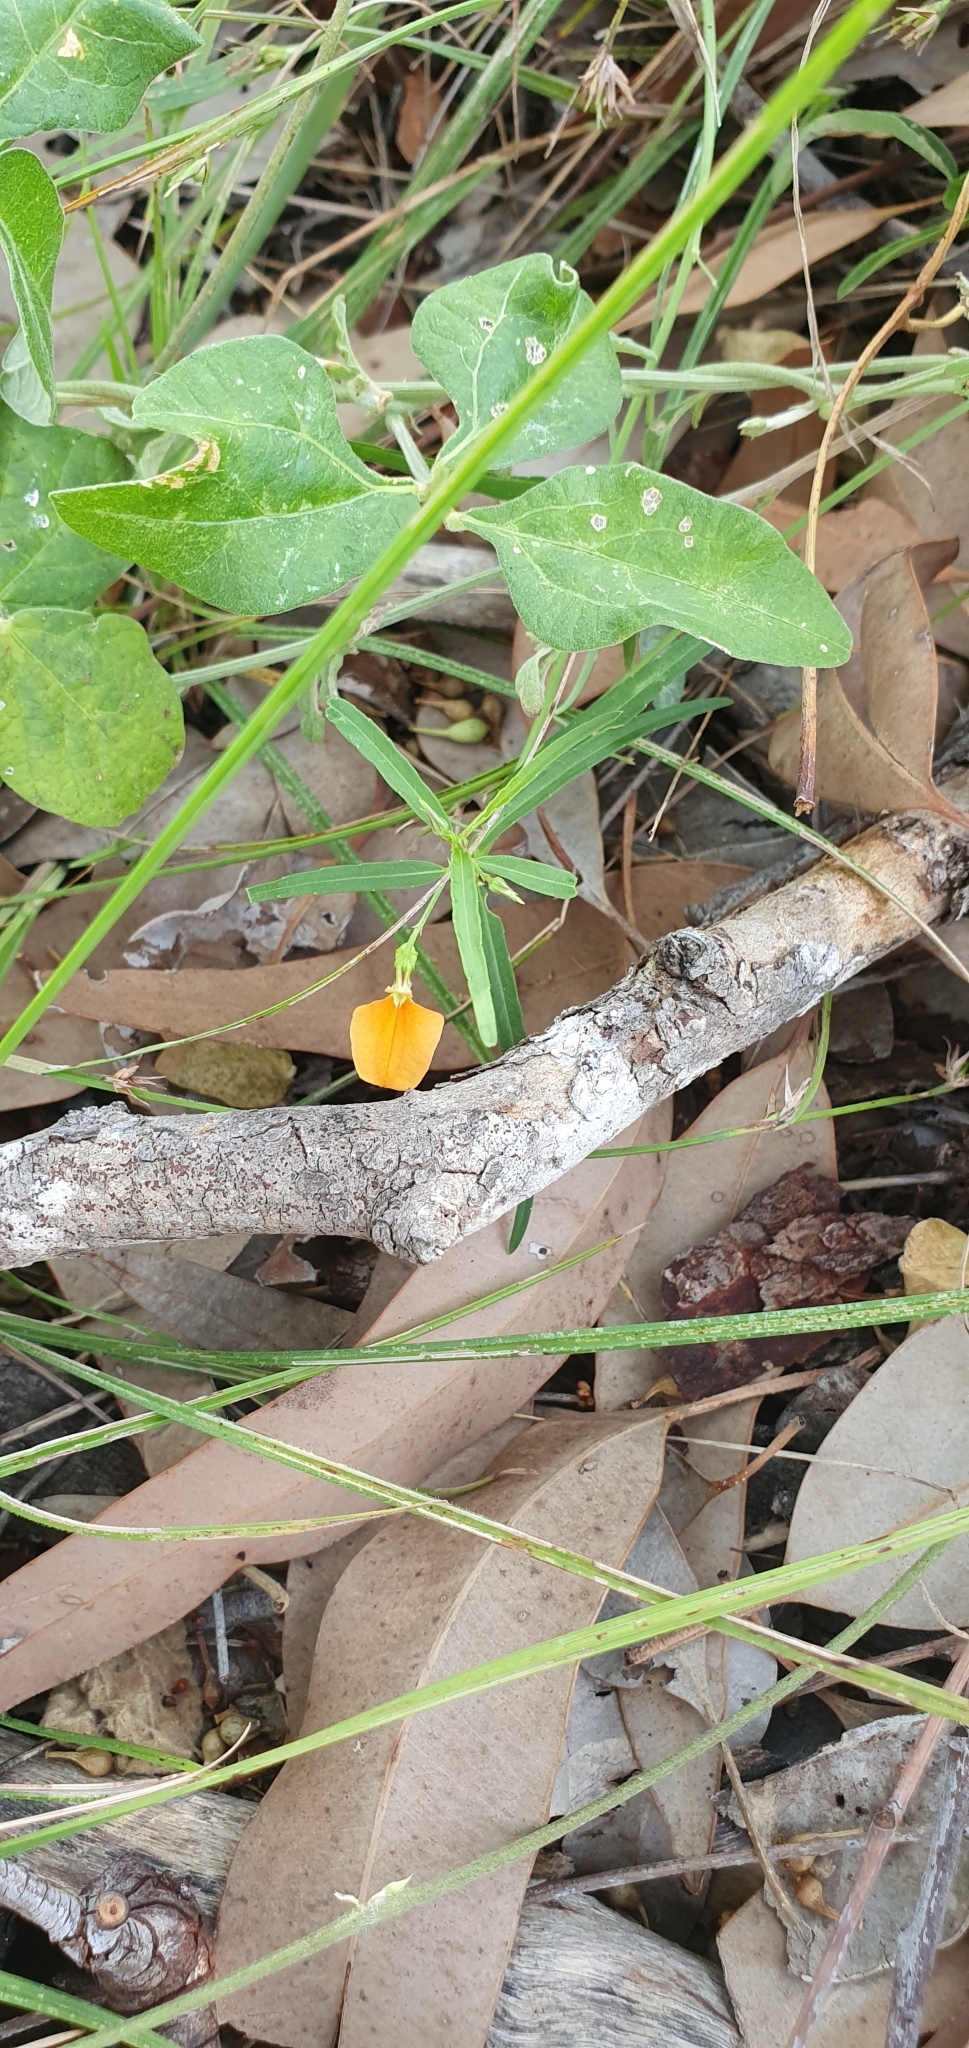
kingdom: Plantae
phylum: Tracheophyta
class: Magnoliopsida
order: Malpighiales
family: Violaceae
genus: Pigea
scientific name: Pigea stellarioides
